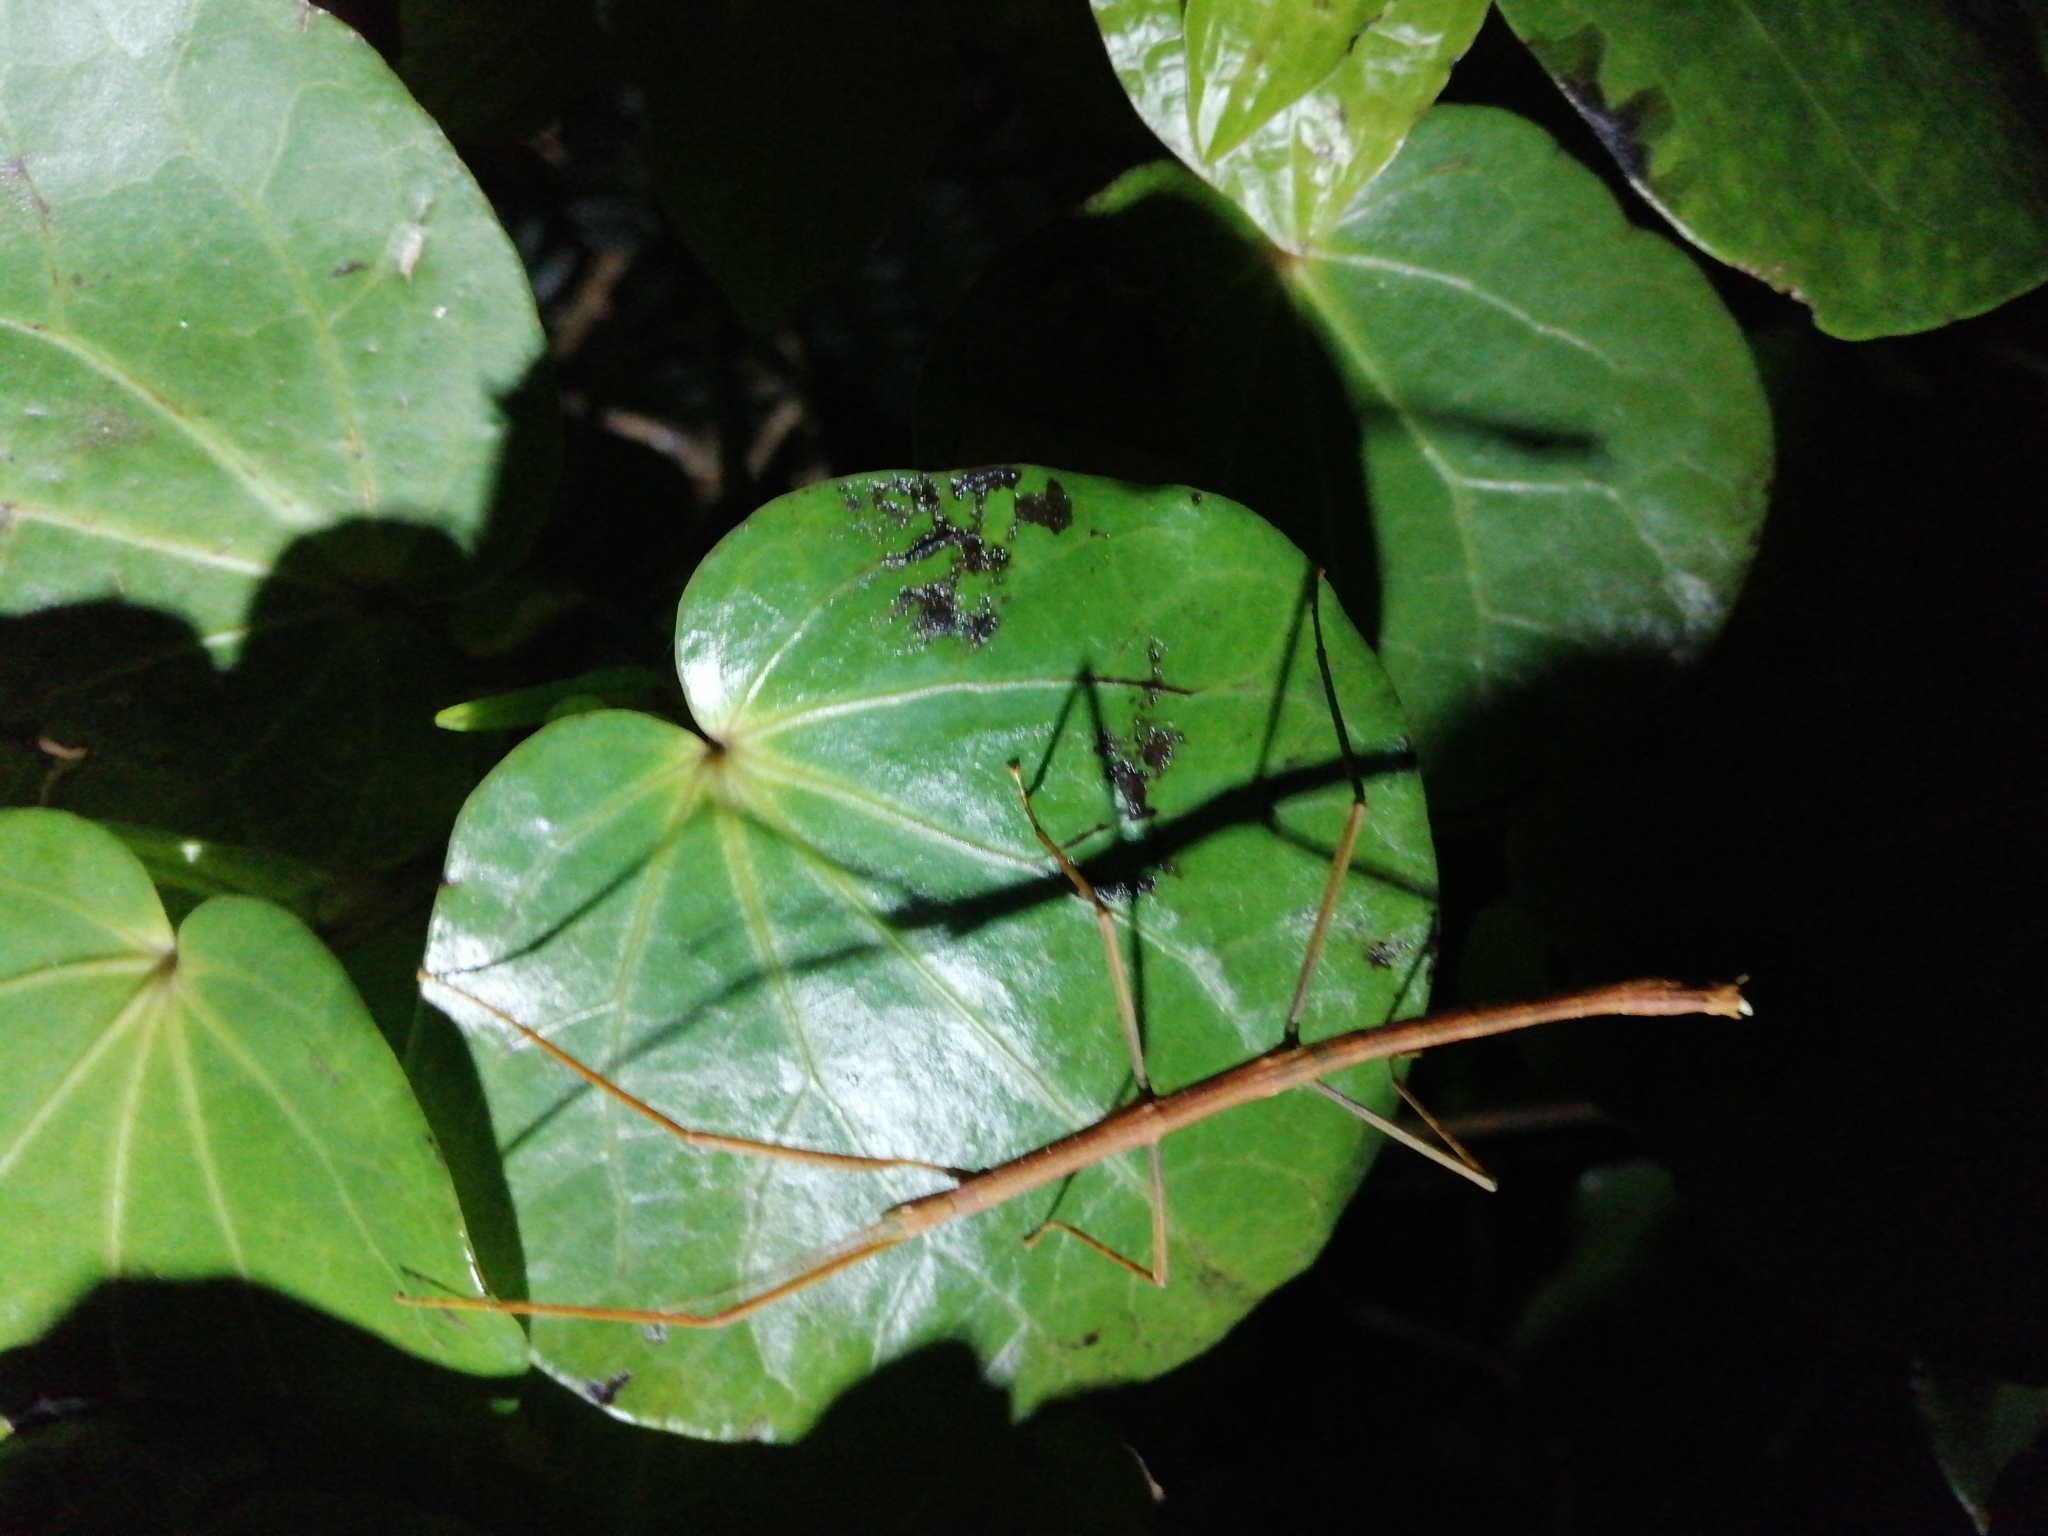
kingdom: Animalia
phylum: Arthropoda
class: Insecta
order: Phasmida
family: Phasmatidae
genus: Tectarchus
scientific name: Tectarchus huttoni
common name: The common ridge-backed stick insect
